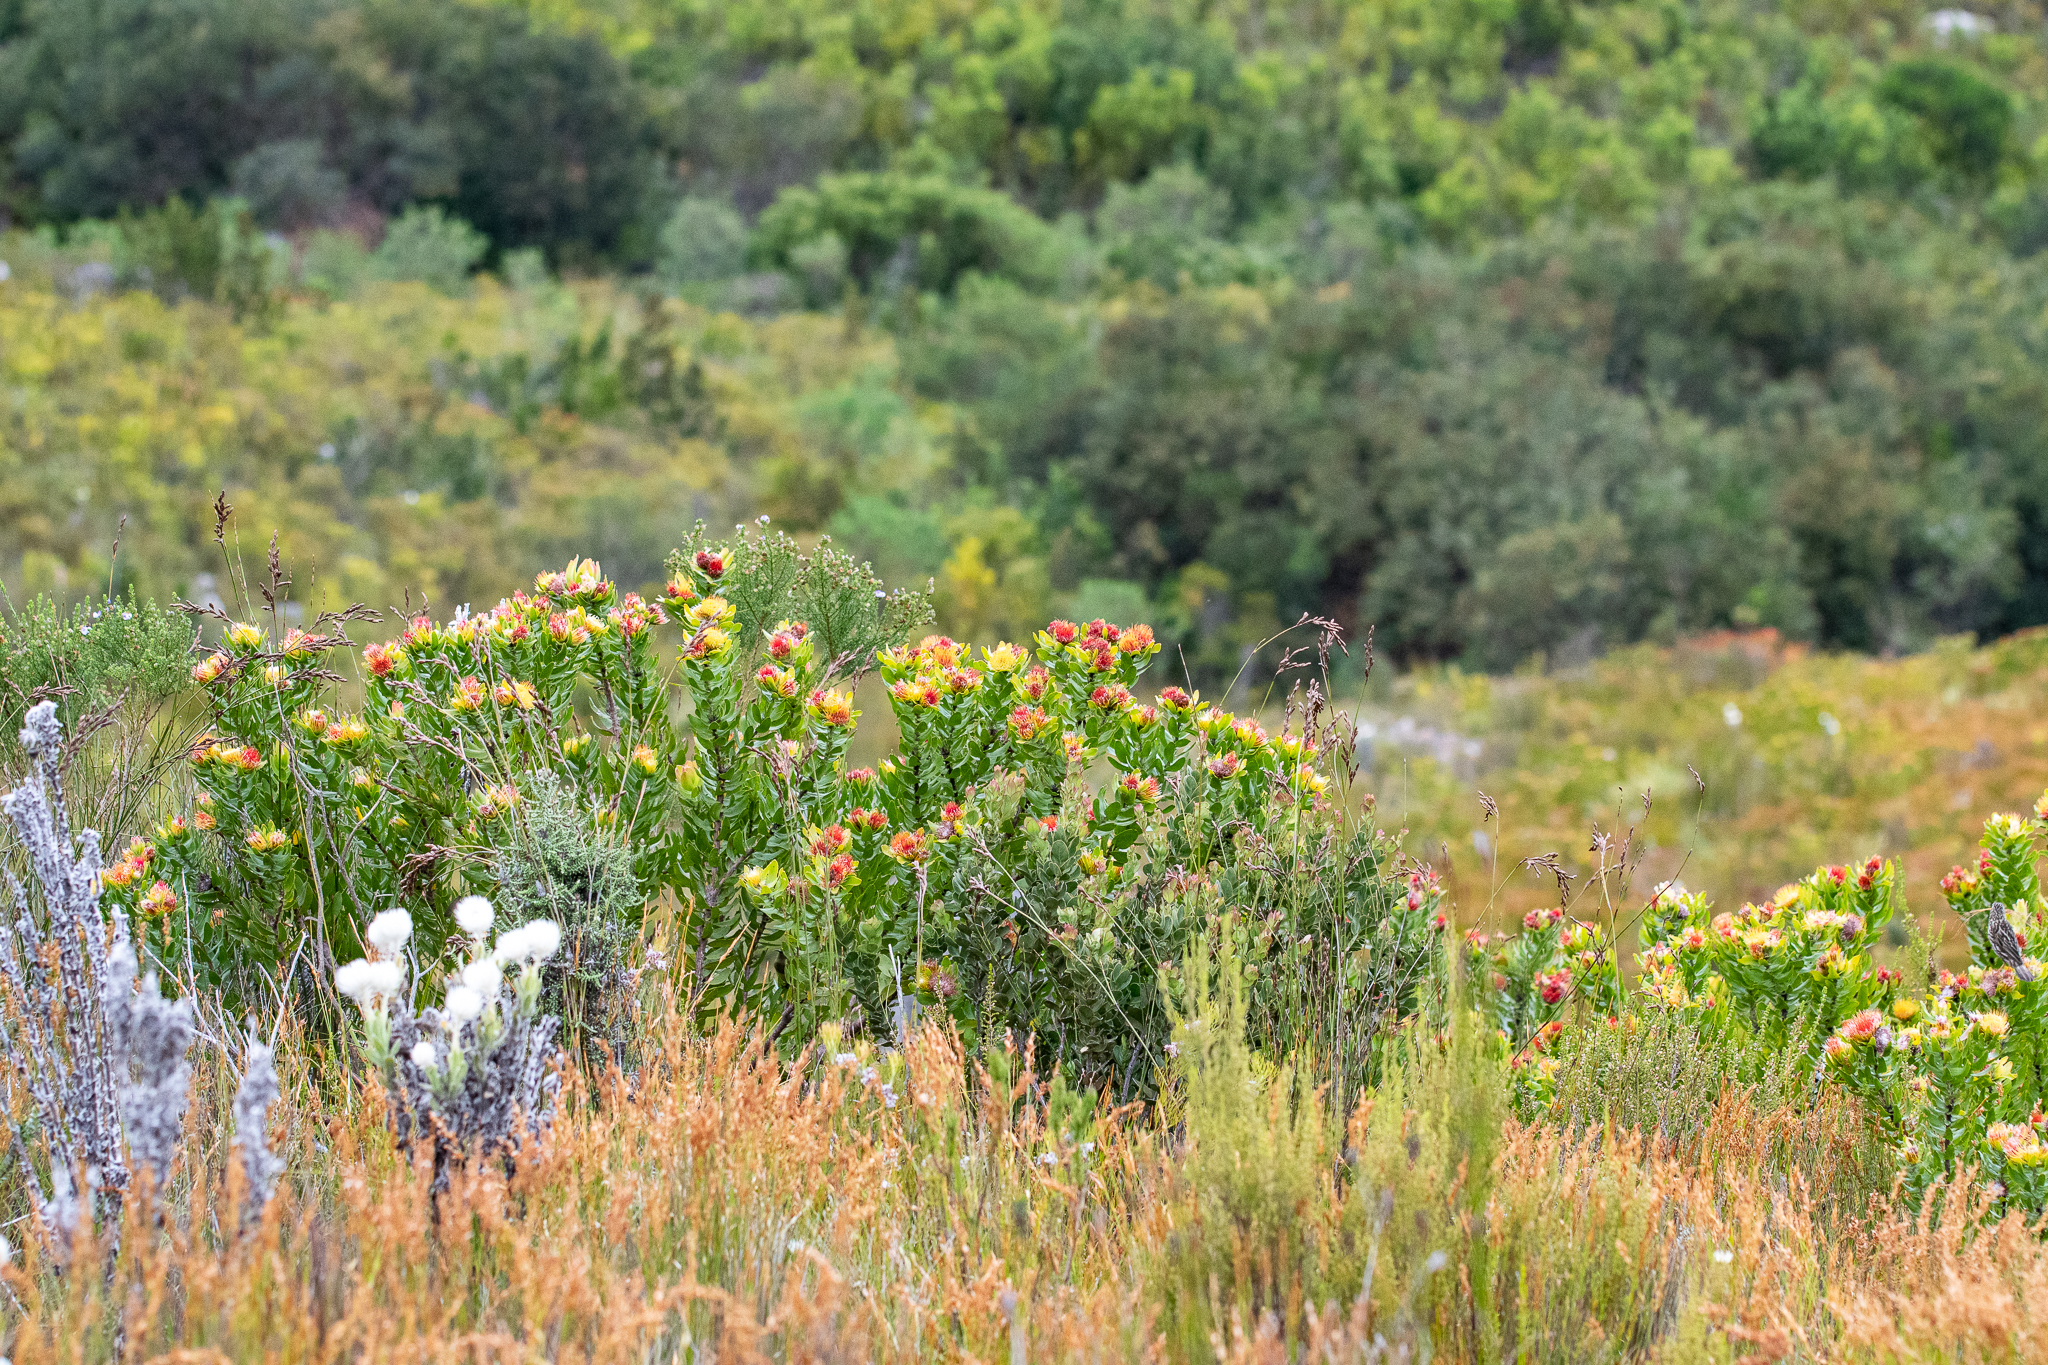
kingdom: Plantae
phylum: Tracheophyta
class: Magnoliopsida
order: Proteales
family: Proteaceae
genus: Leucospermum
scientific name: Leucospermum oleifolium
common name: Matches
